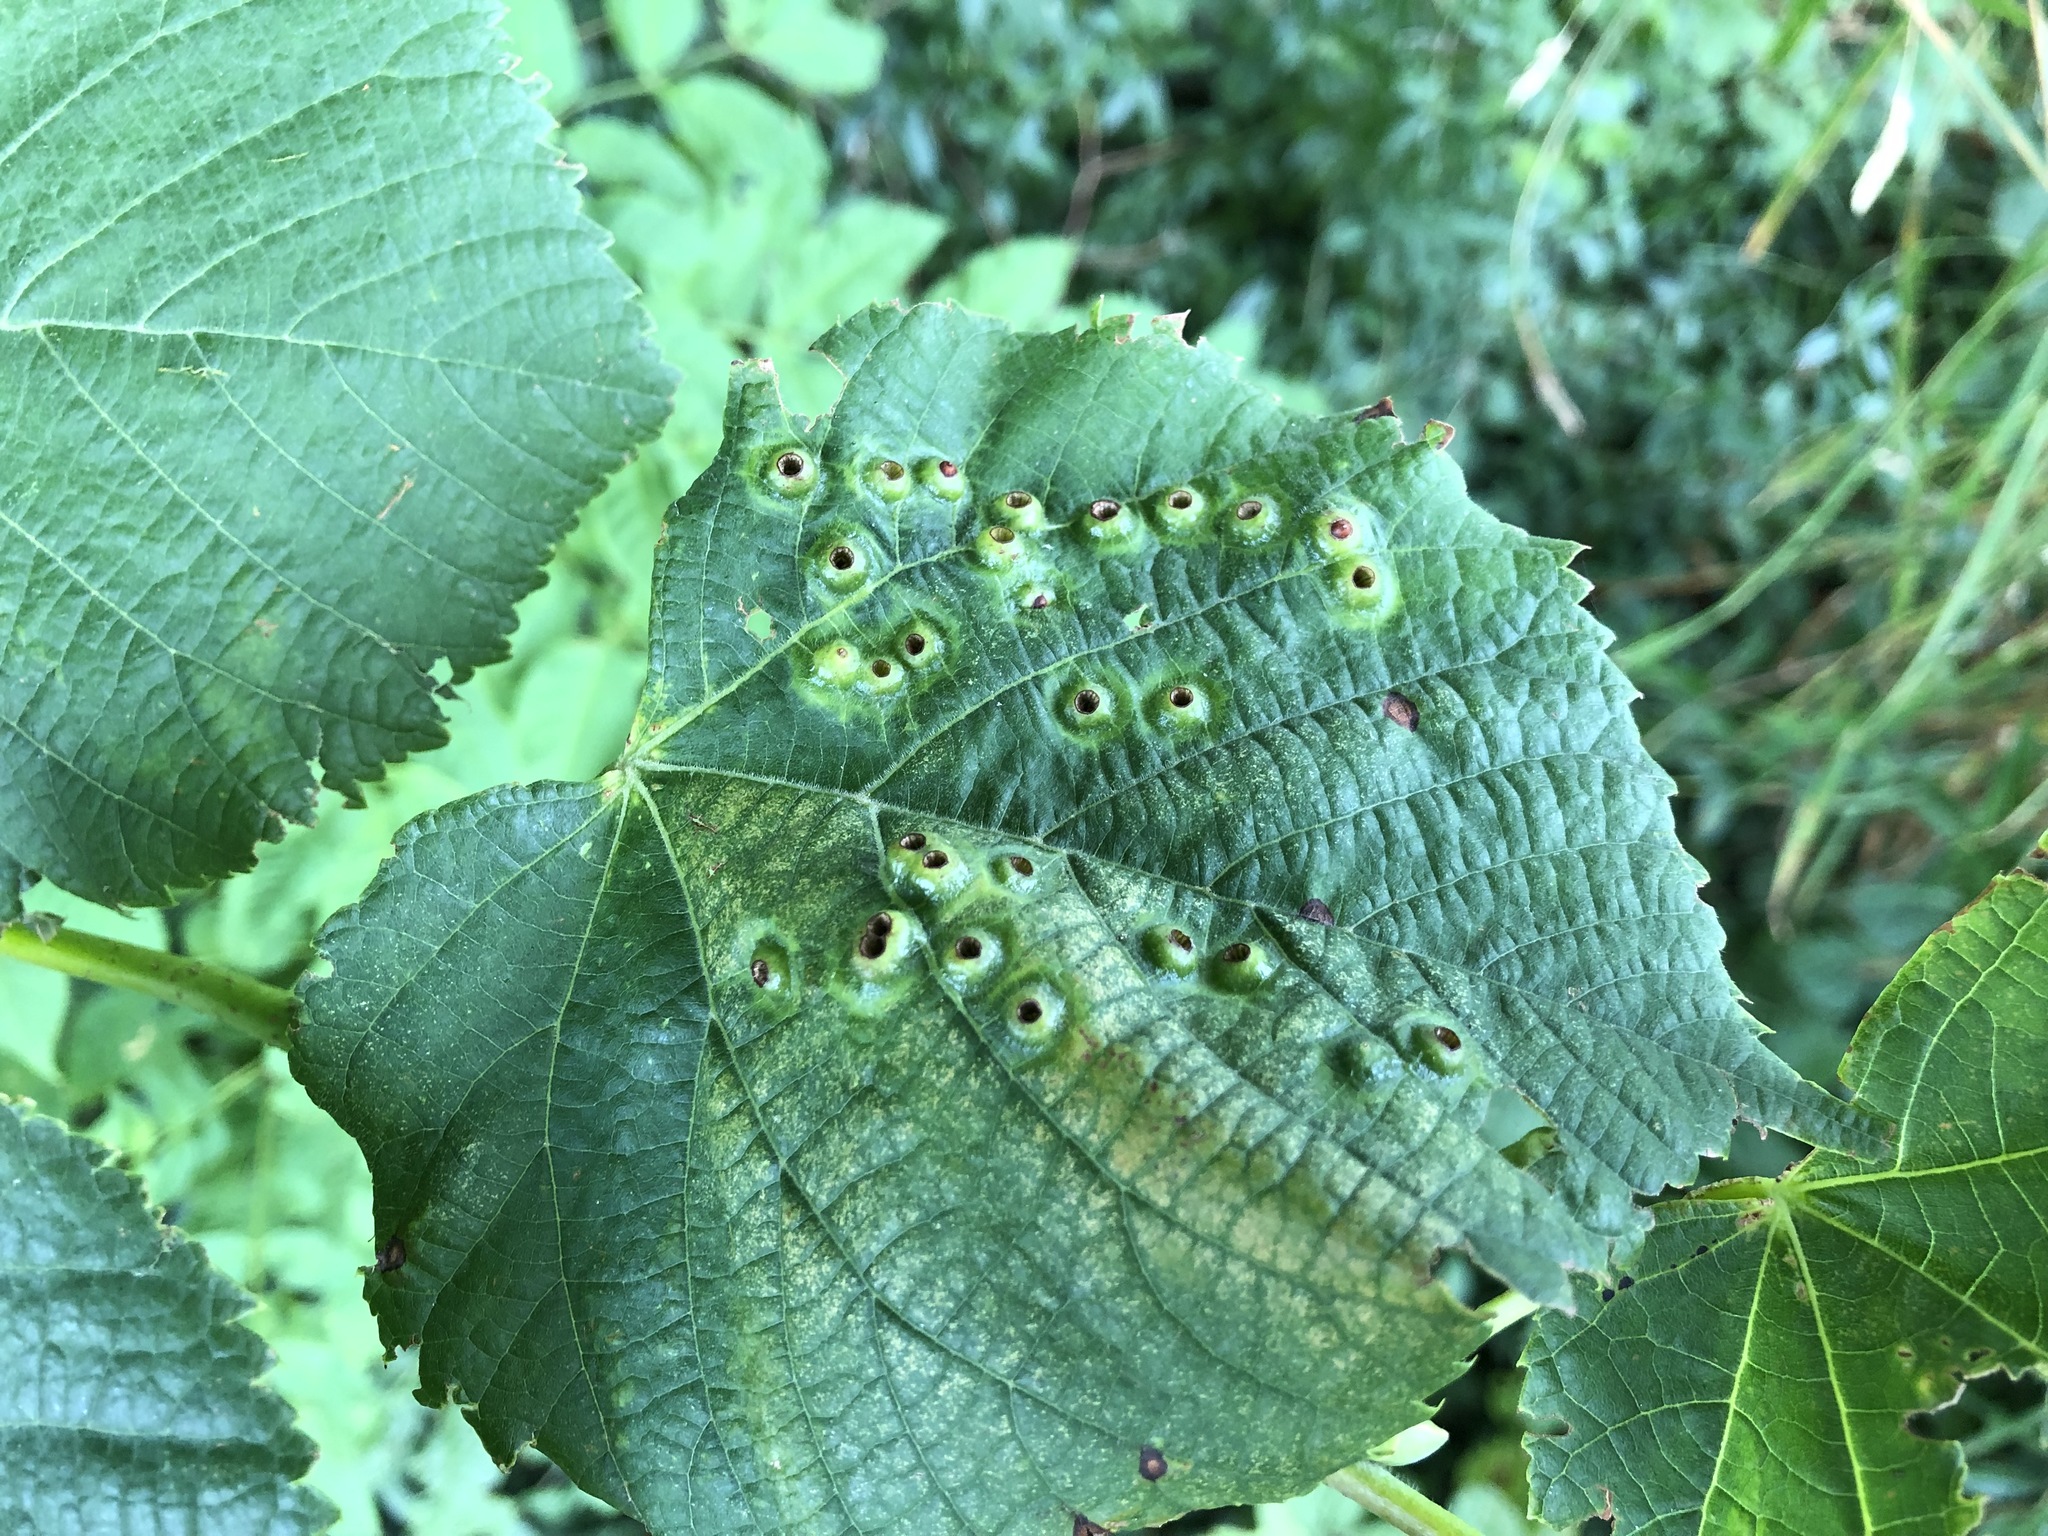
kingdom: Animalia
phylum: Arthropoda
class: Insecta
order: Diptera
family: Cecidomyiidae
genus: Didymomyia
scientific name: Didymomyia tiliacea
